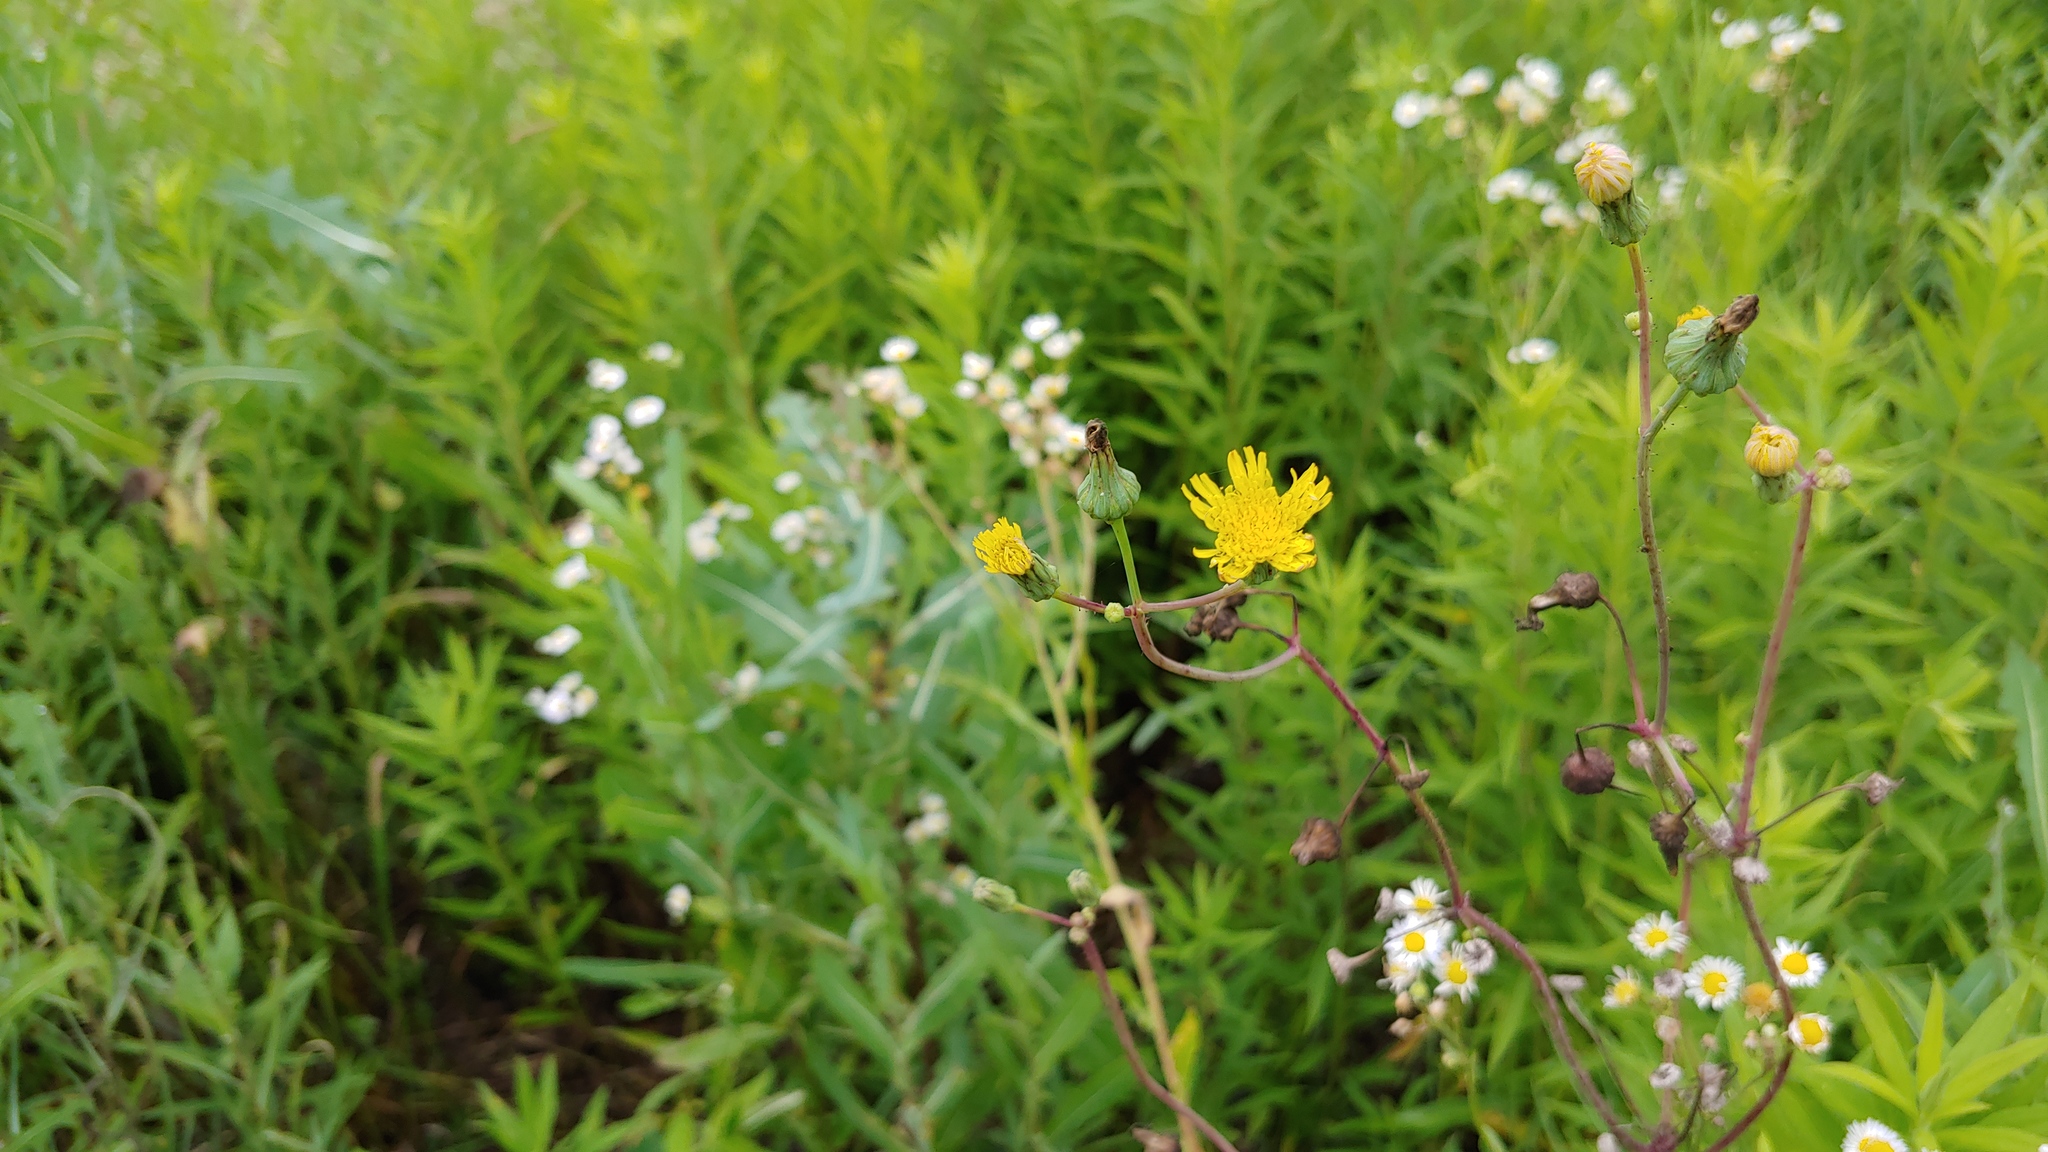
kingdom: Plantae
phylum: Tracheophyta
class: Magnoliopsida
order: Asterales
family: Asteraceae
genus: Sonchus
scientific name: Sonchus asper
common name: Prickly sow-thistle
